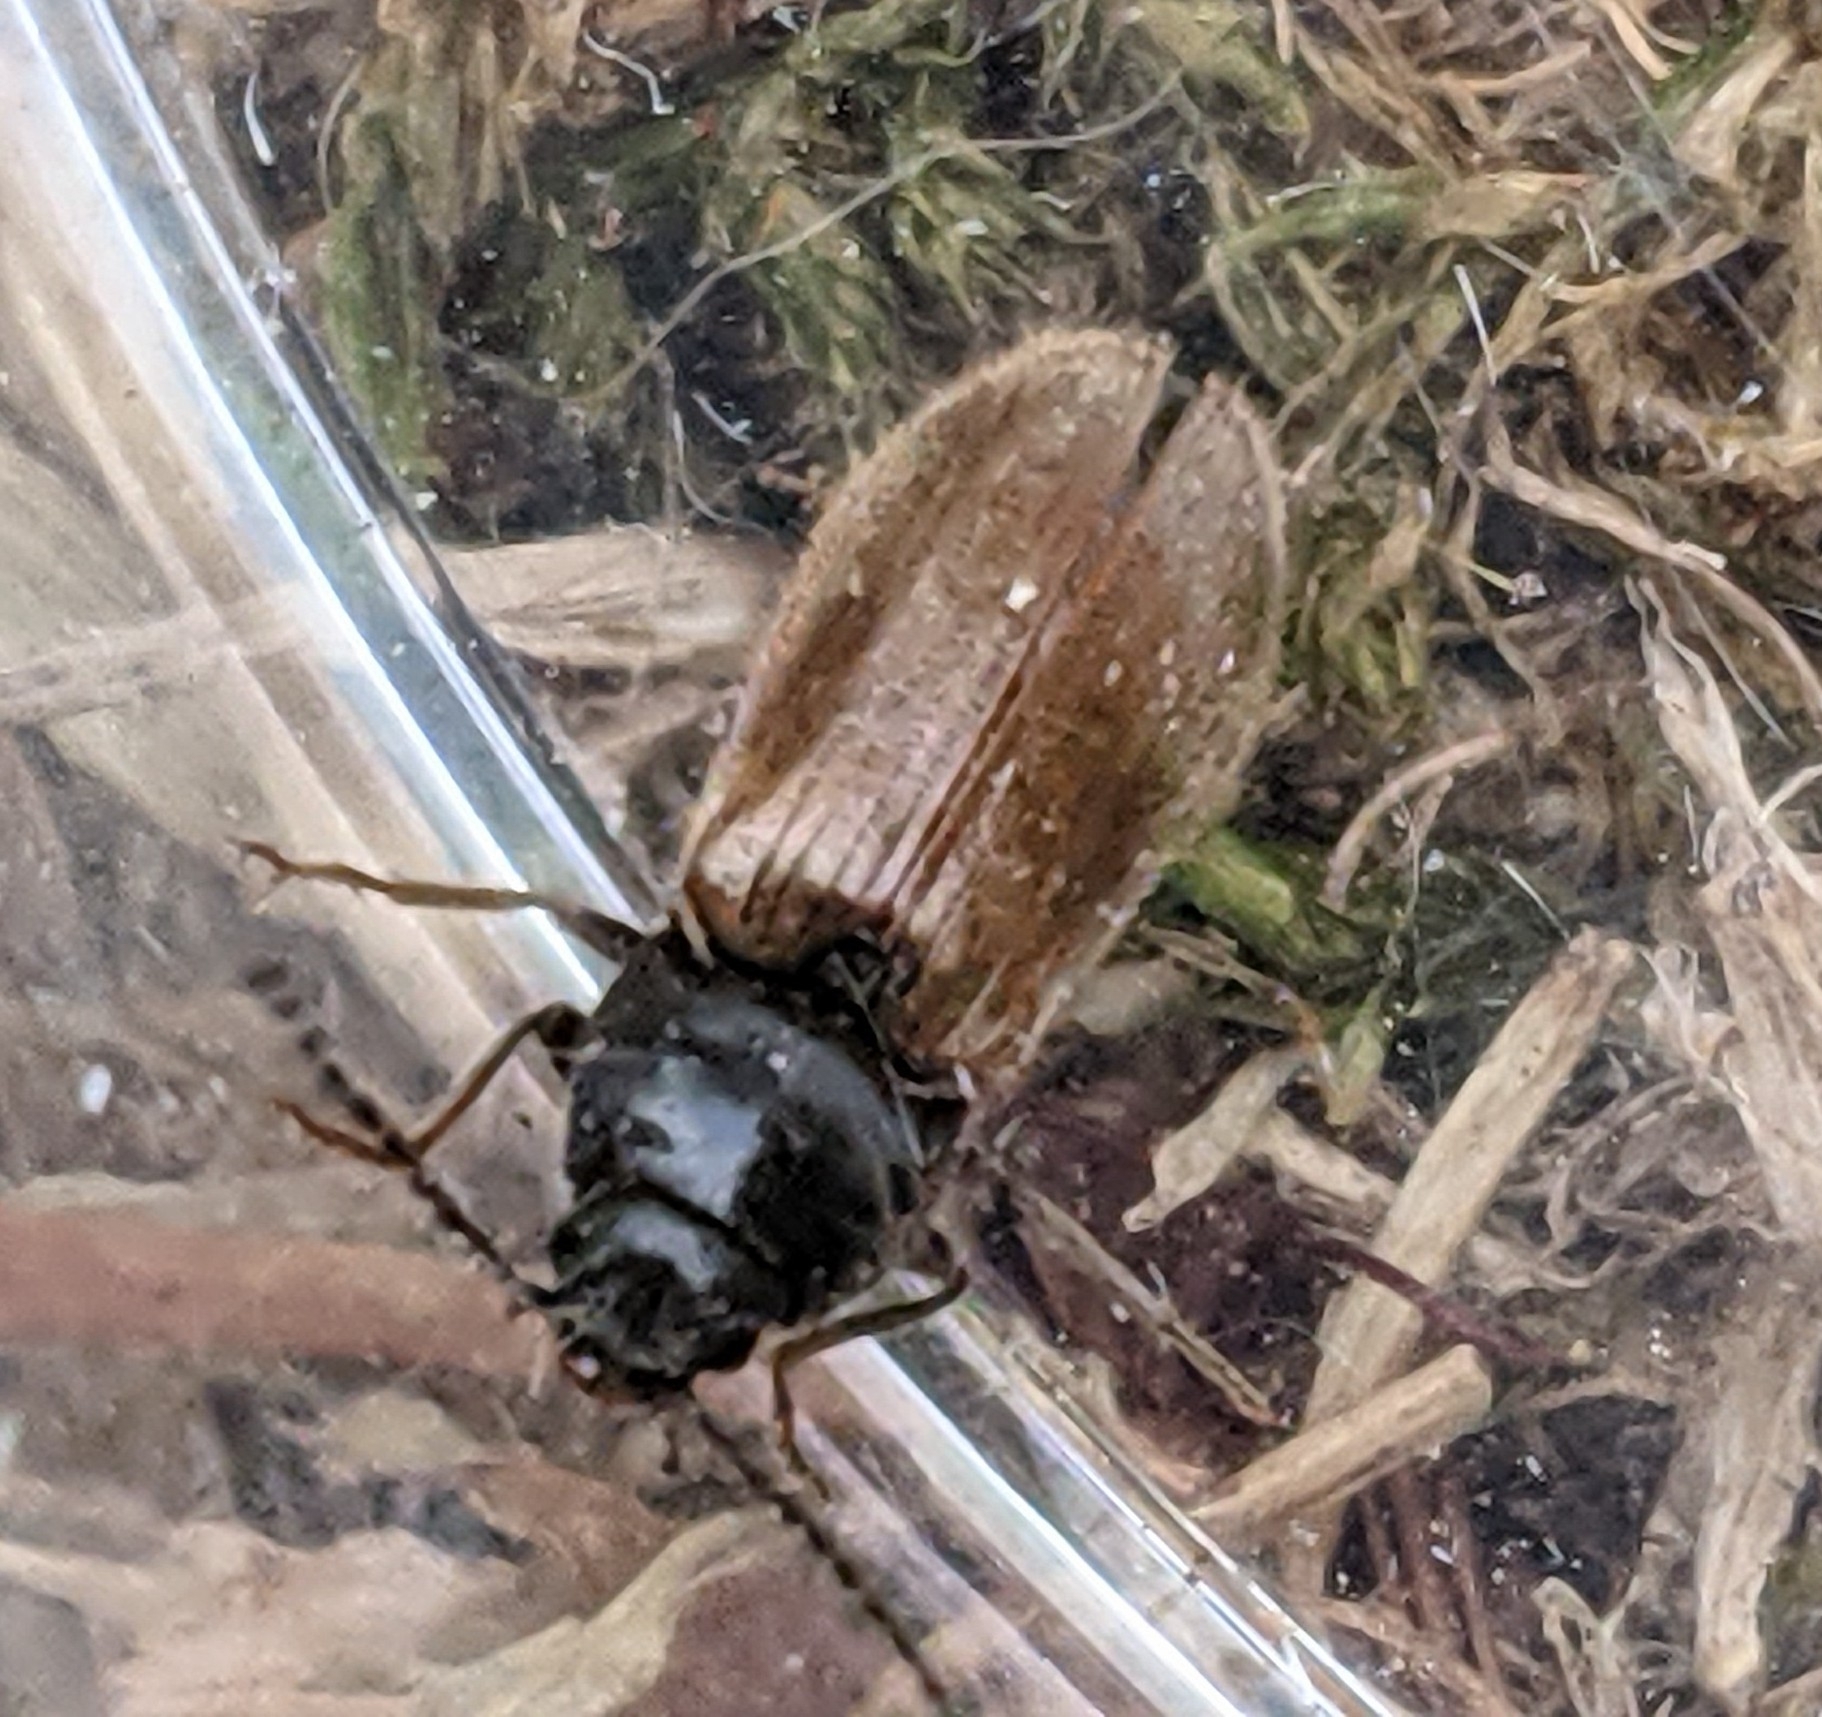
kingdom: Animalia
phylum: Arthropoda
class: Insecta
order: Coleoptera
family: Elateridae
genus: Hemicrepidius
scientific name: Hemicrepidius pallidipennis
